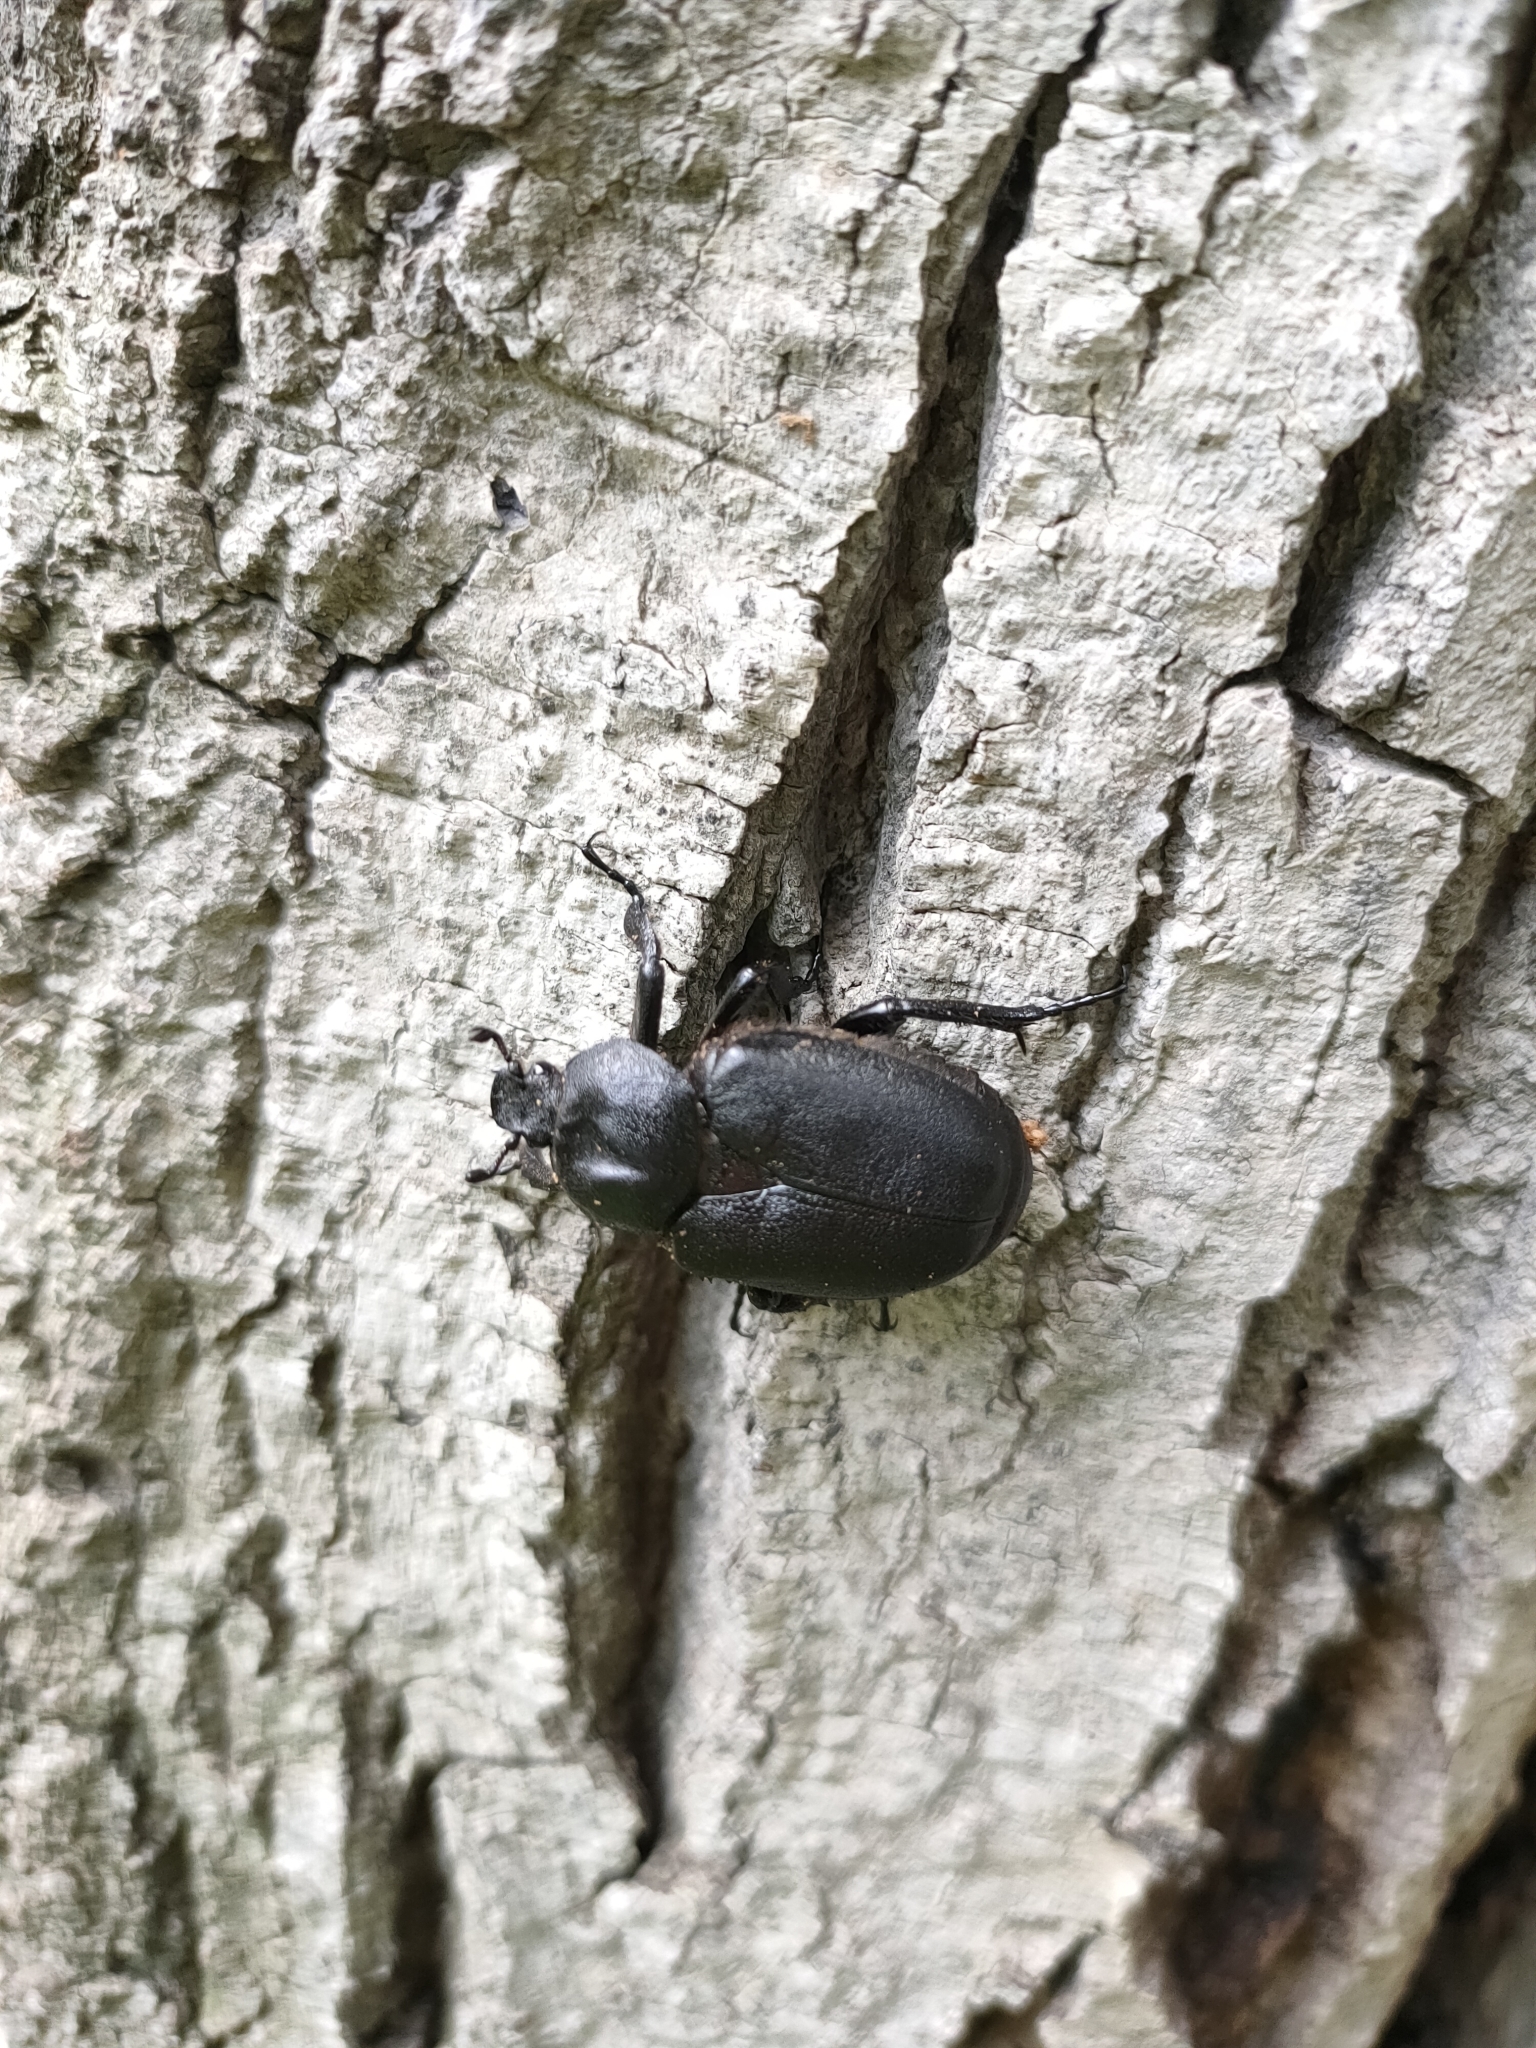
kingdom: Animalia
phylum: Arthropoda
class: Insecta
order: Coleoptera
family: Scarabaeidae
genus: Osmoderma
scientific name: Osmoderma davidis
